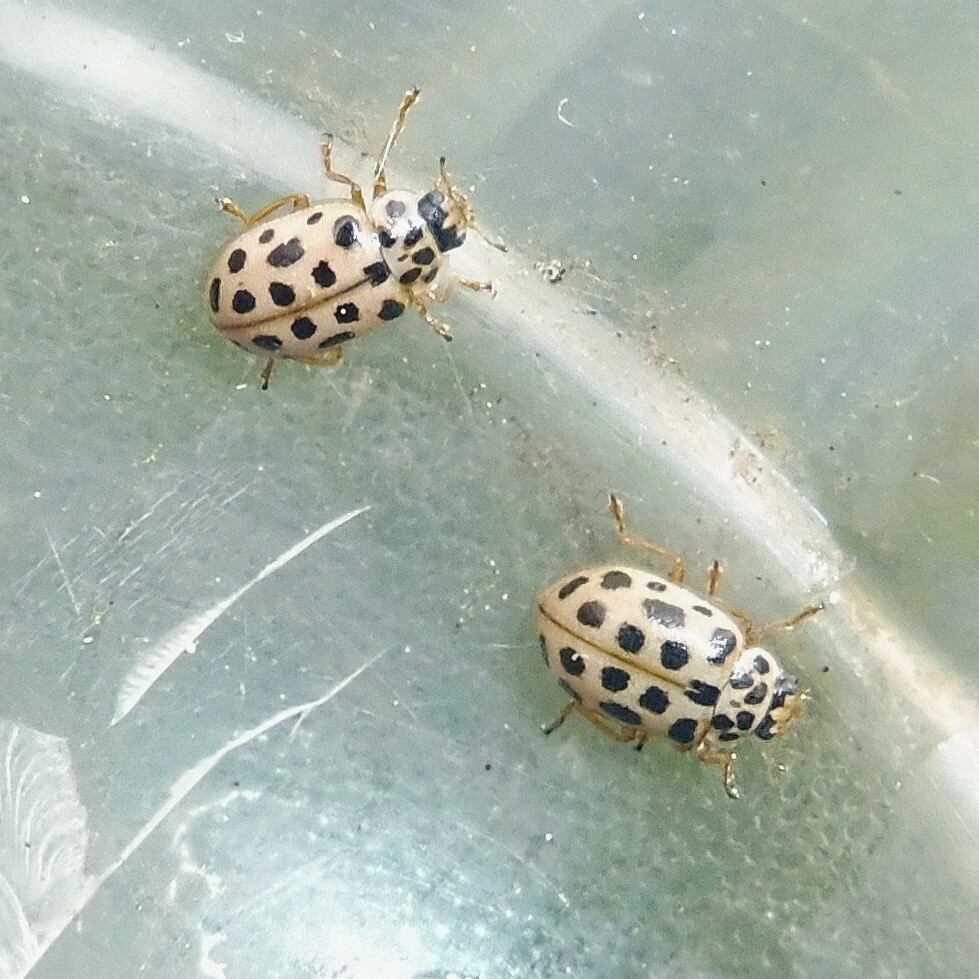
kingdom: Animalia
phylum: Arthropoda
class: Insecta
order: Coleoptera
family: Coccinellidae
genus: Anisosticta
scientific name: Anisosticta novemdecimpunctata
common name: Water ladybird
